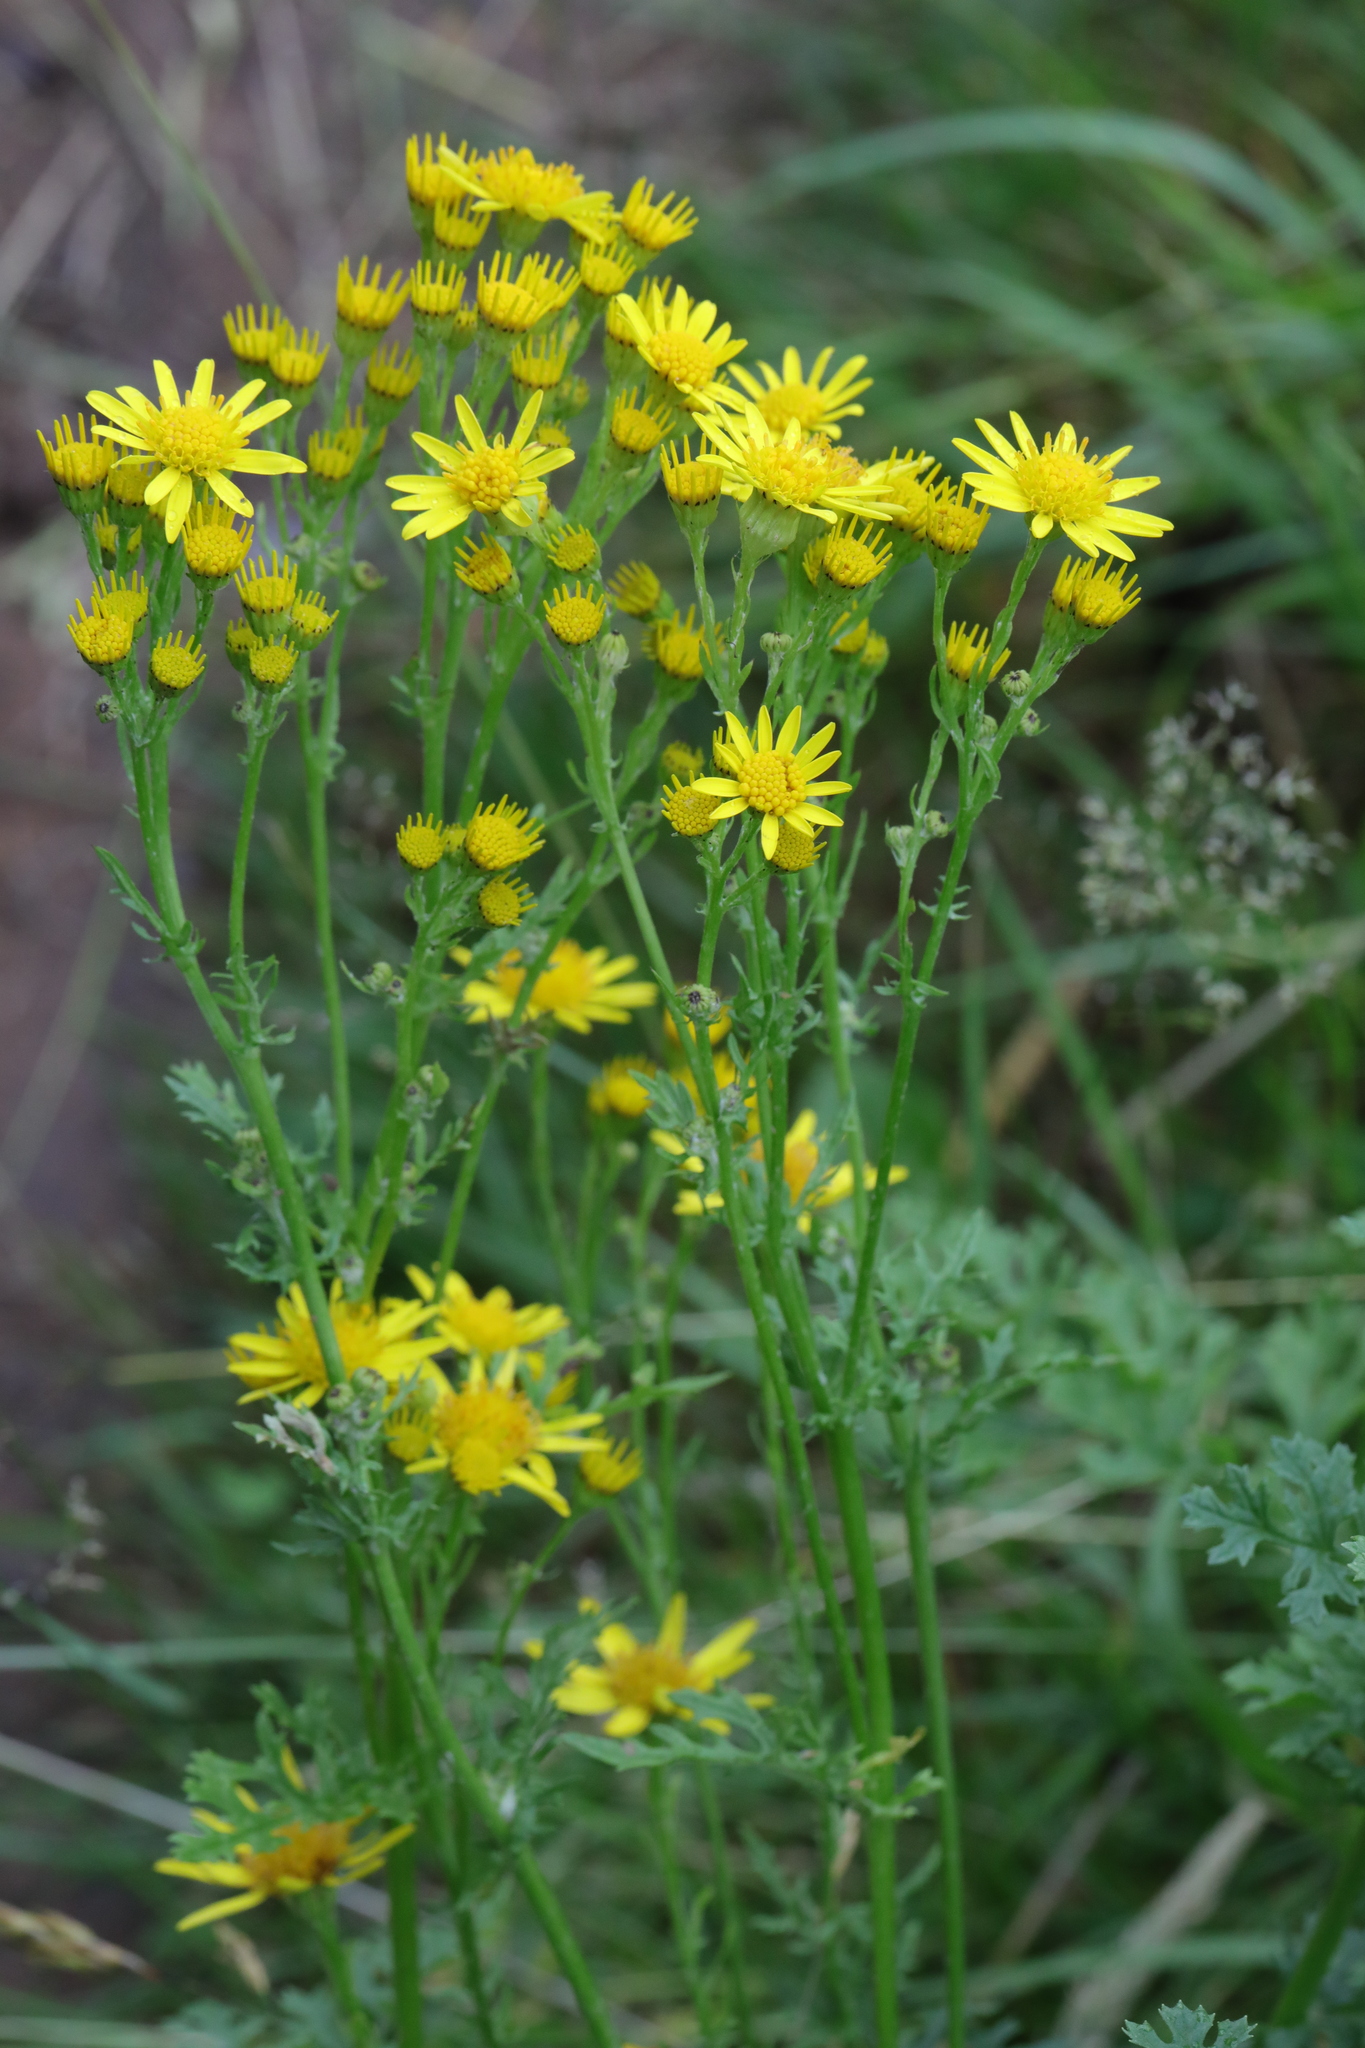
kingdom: Plantae
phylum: Tracheophyta
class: Magnoliopsida
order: Asterales
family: Asteraceae
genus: Jacobaea
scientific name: Jacobaea vulgaris
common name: Stinking willie
